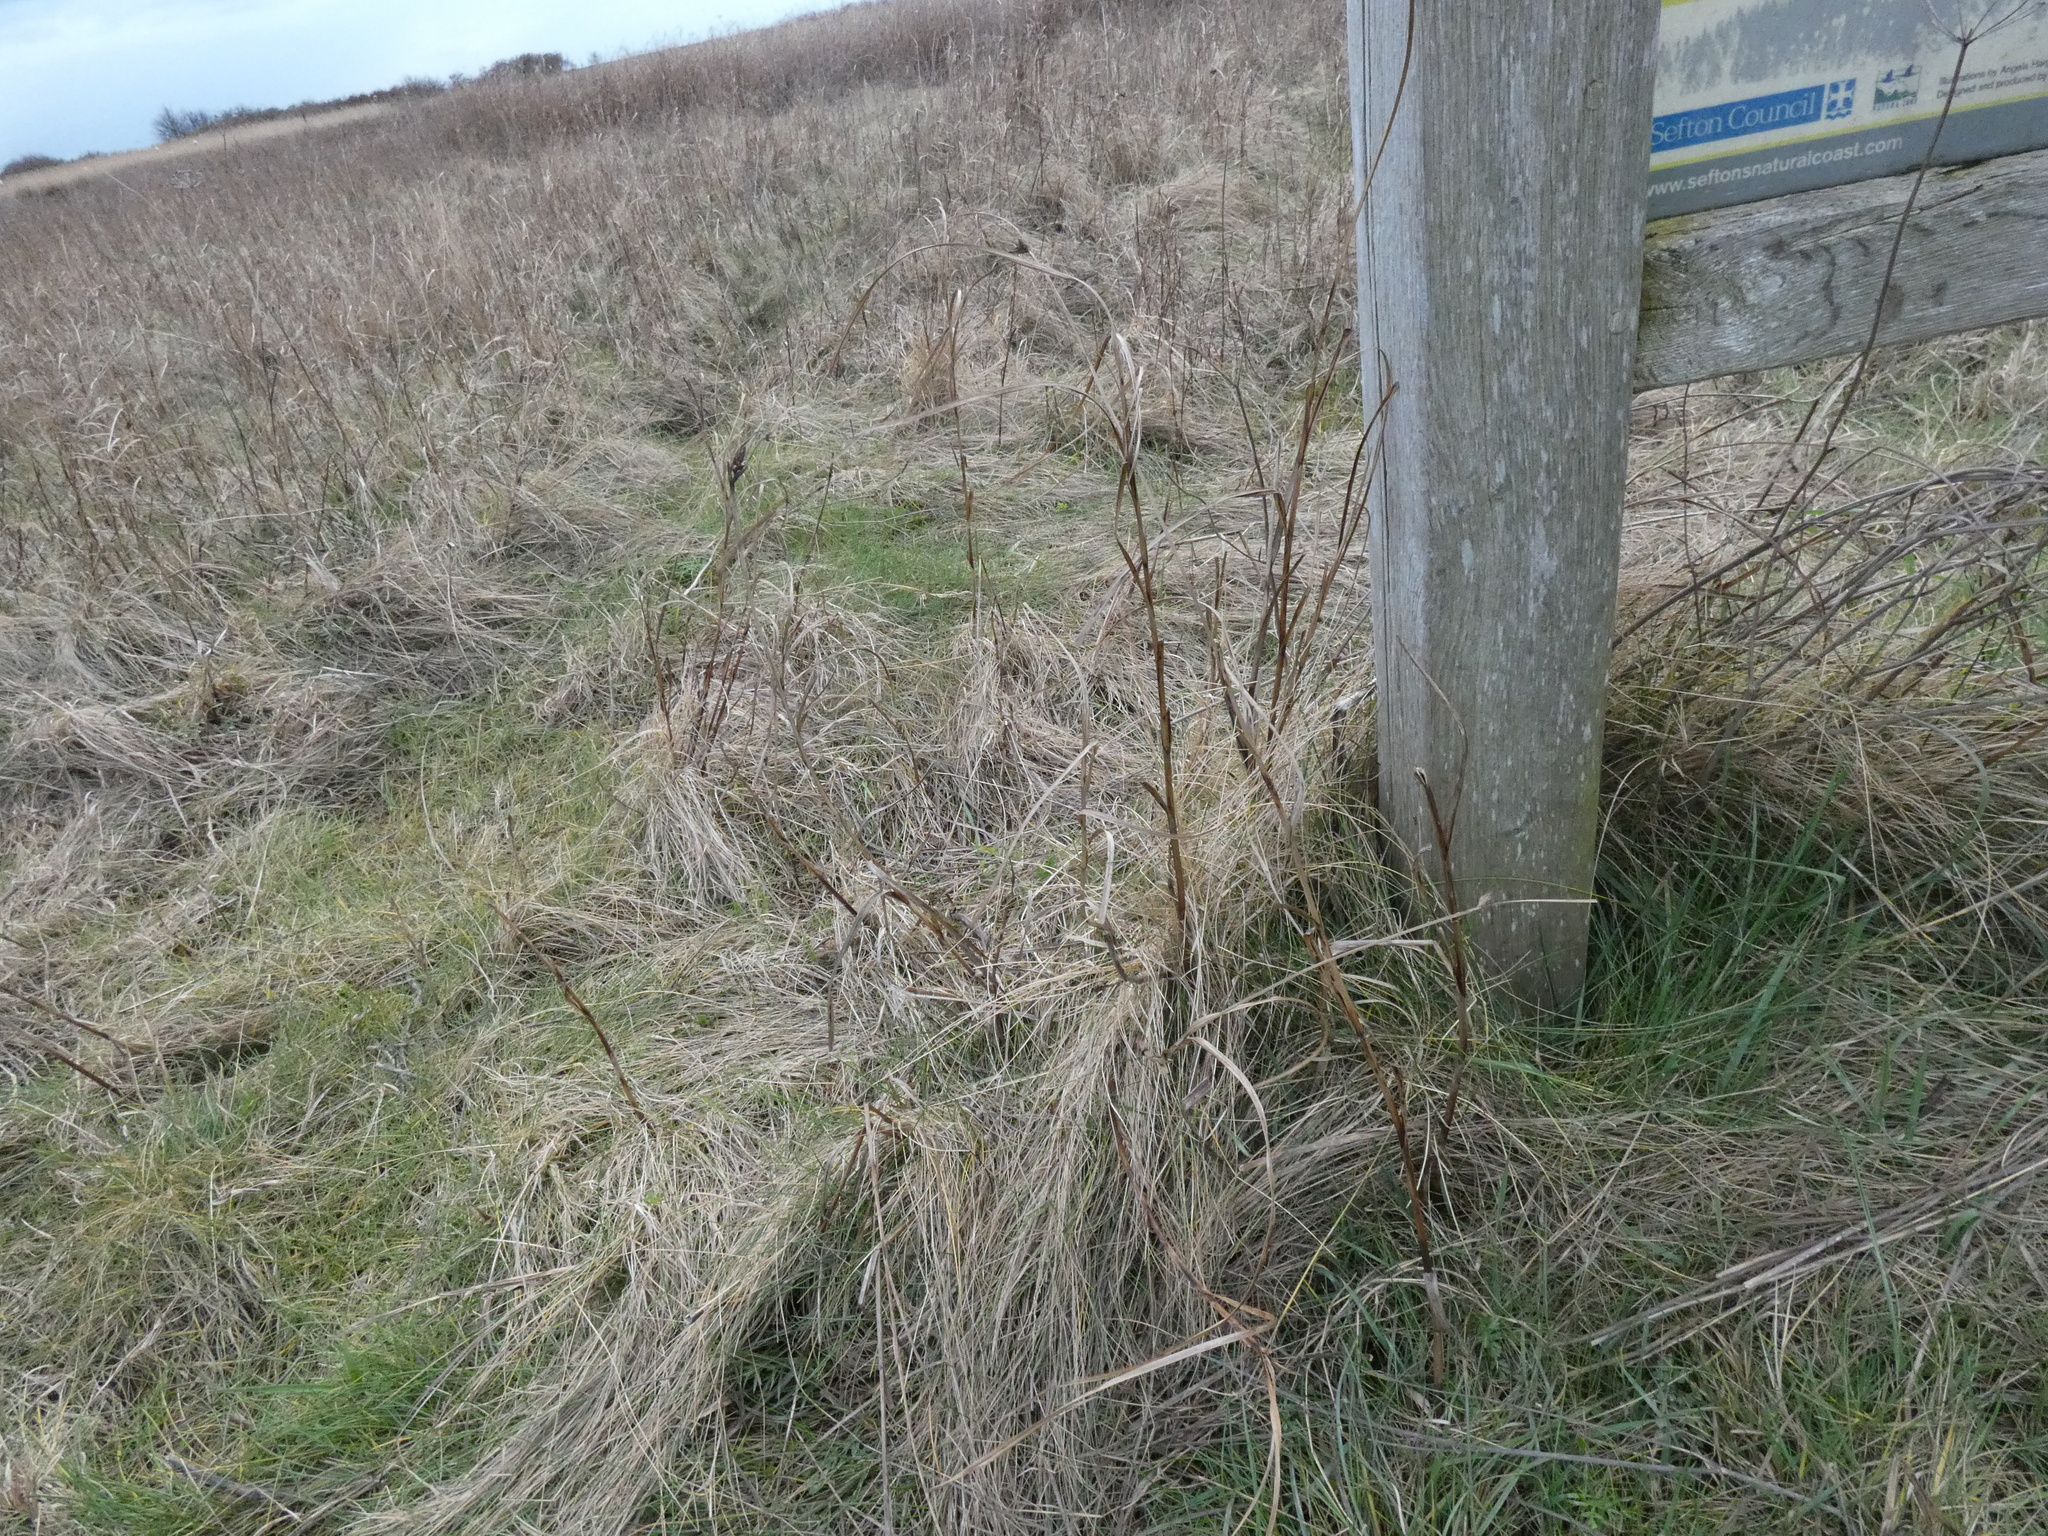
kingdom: Plantae
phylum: Tracheophyta
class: Liliopsida
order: Poales
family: Cyperaceae
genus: Bolboschoenus
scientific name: Bolboschoenus maritimus
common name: Sea club-rush
